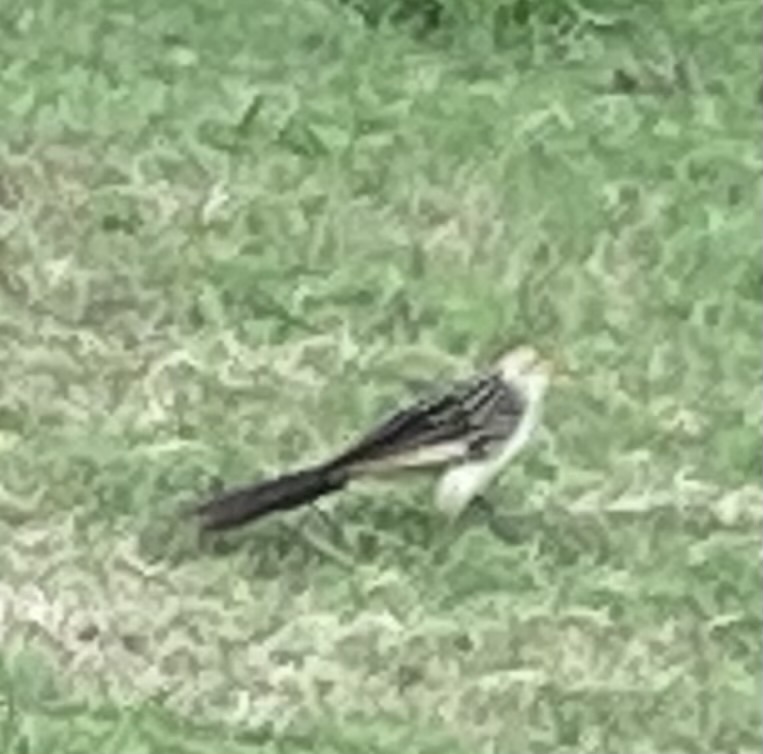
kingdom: Animalia
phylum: Chordata
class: Aves
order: Cuculiformes
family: Cuculidae
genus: Guira
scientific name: Guira guira
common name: Guira cuckoo
